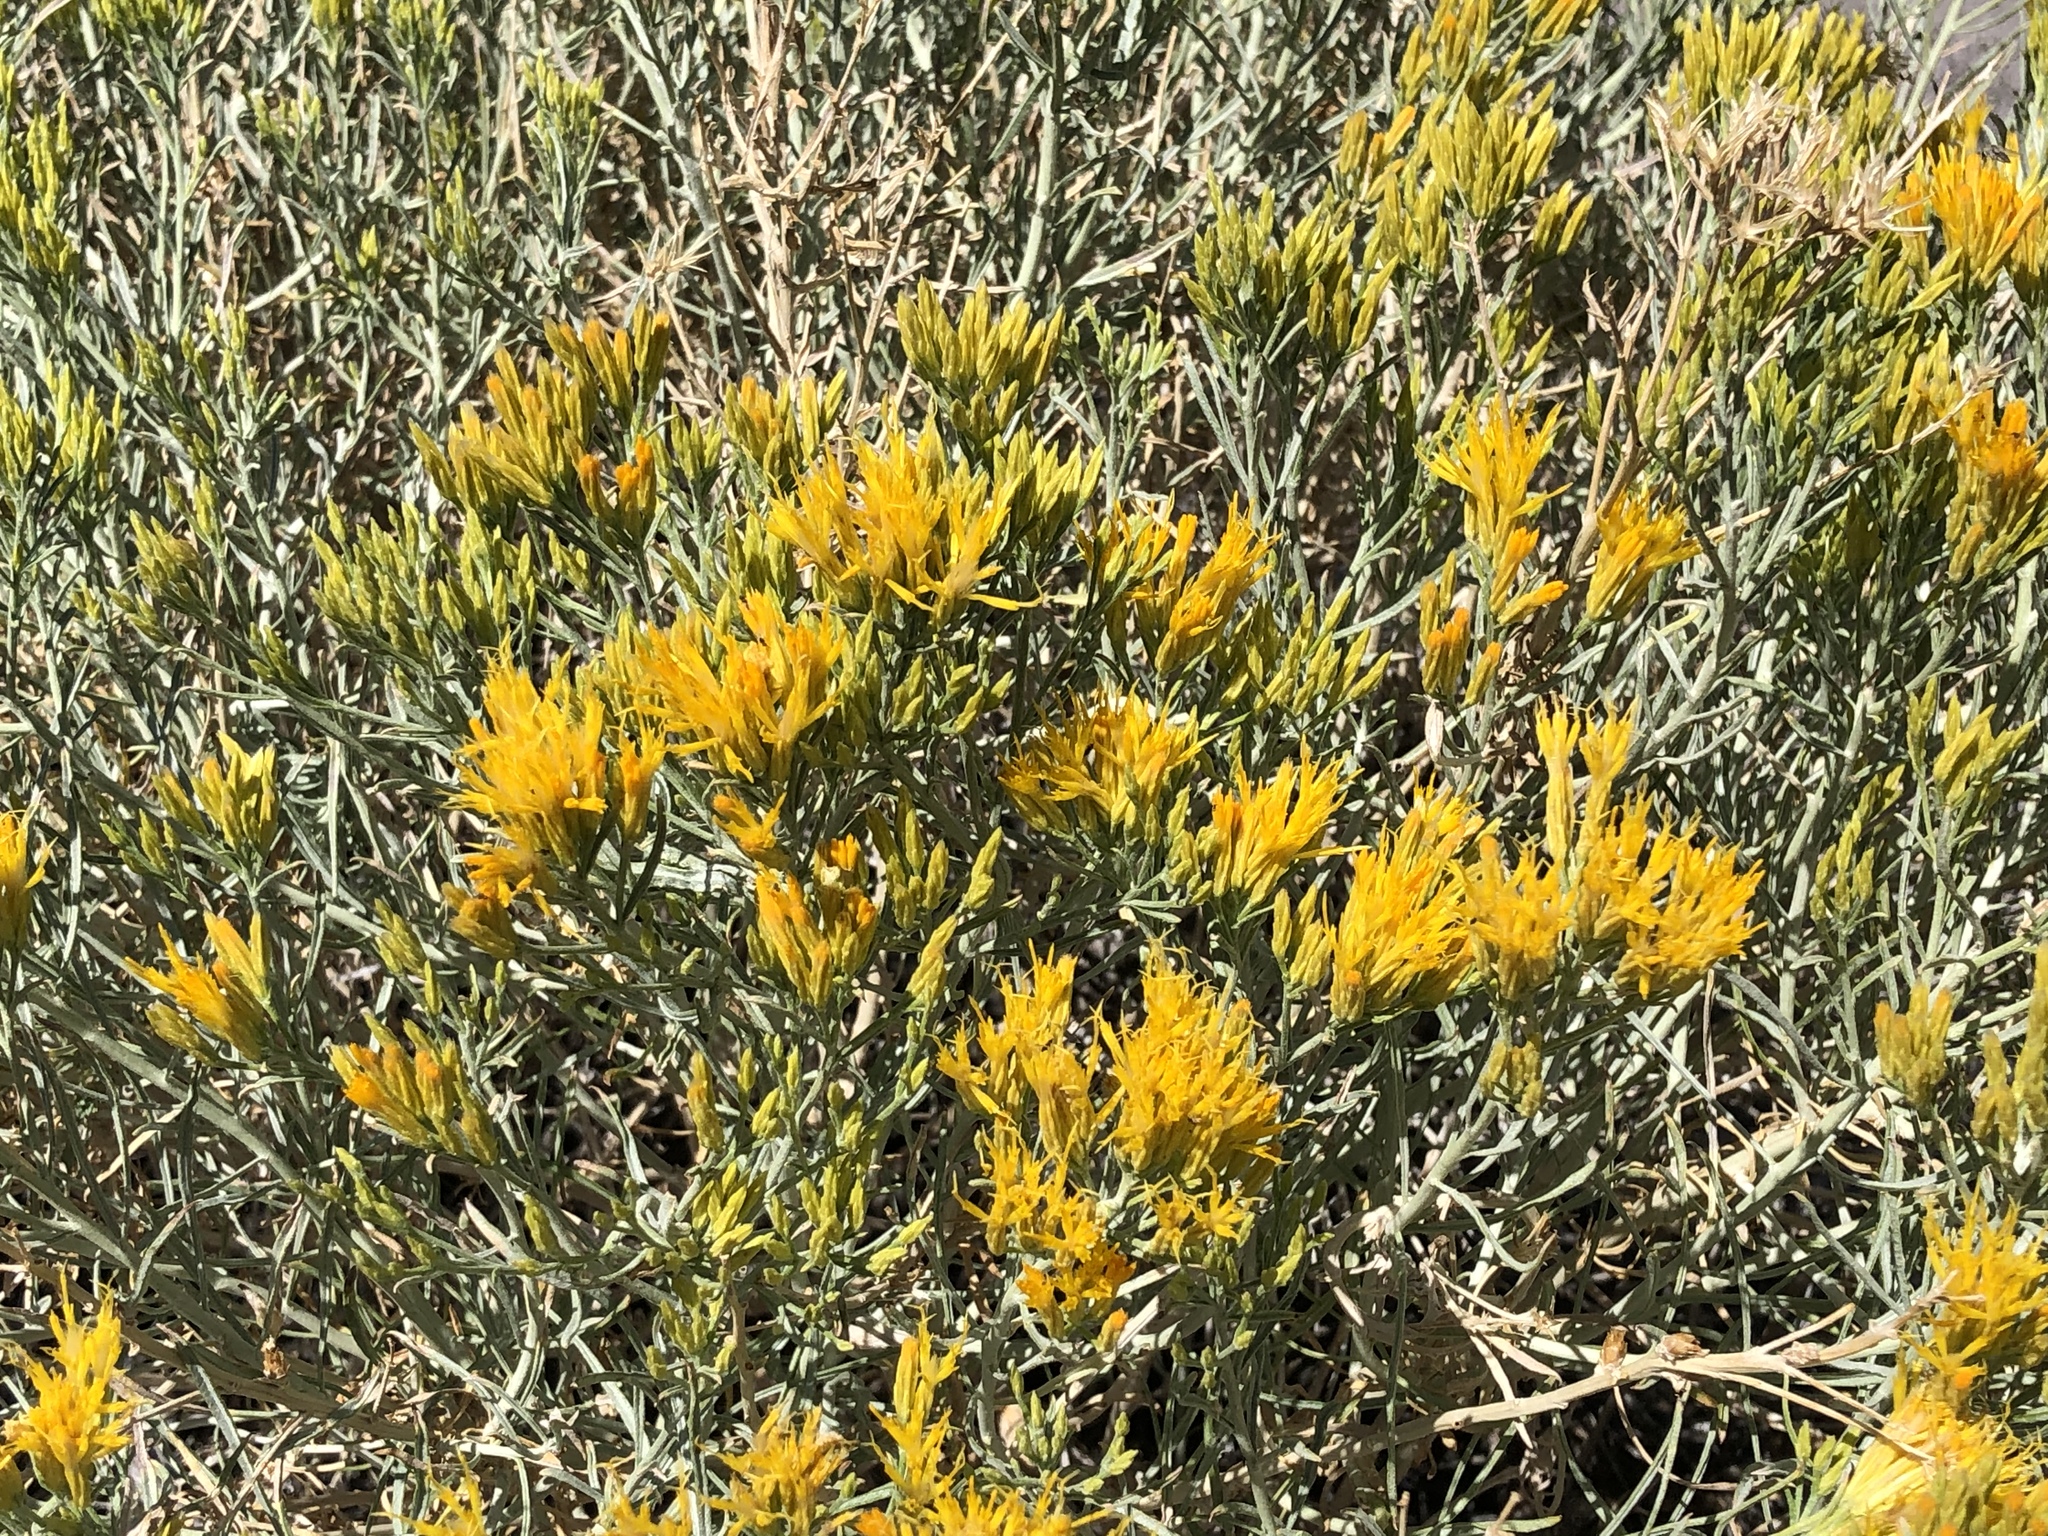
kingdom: Plantae
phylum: Tracheophyta
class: Magnoliopsida
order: Asterales
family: Asteraceae
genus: Ericameria
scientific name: Ericameria nauseosa
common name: Rubber rabbitbrush
